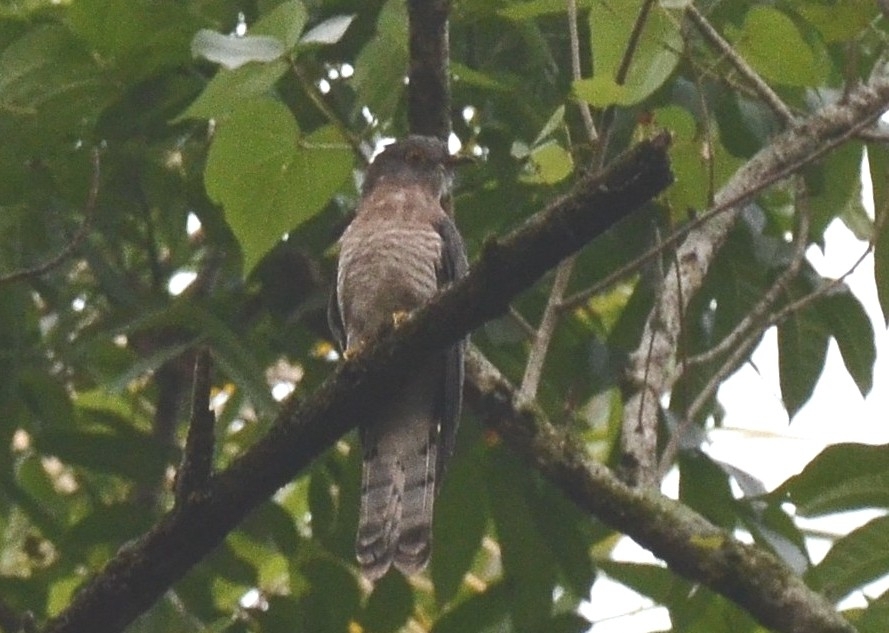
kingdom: Animalia
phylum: Chordata
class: Aves
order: Cuculiformes
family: Cuculidae
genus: Cuculus
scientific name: Cuculus varius
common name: Common hawk cuckoo
